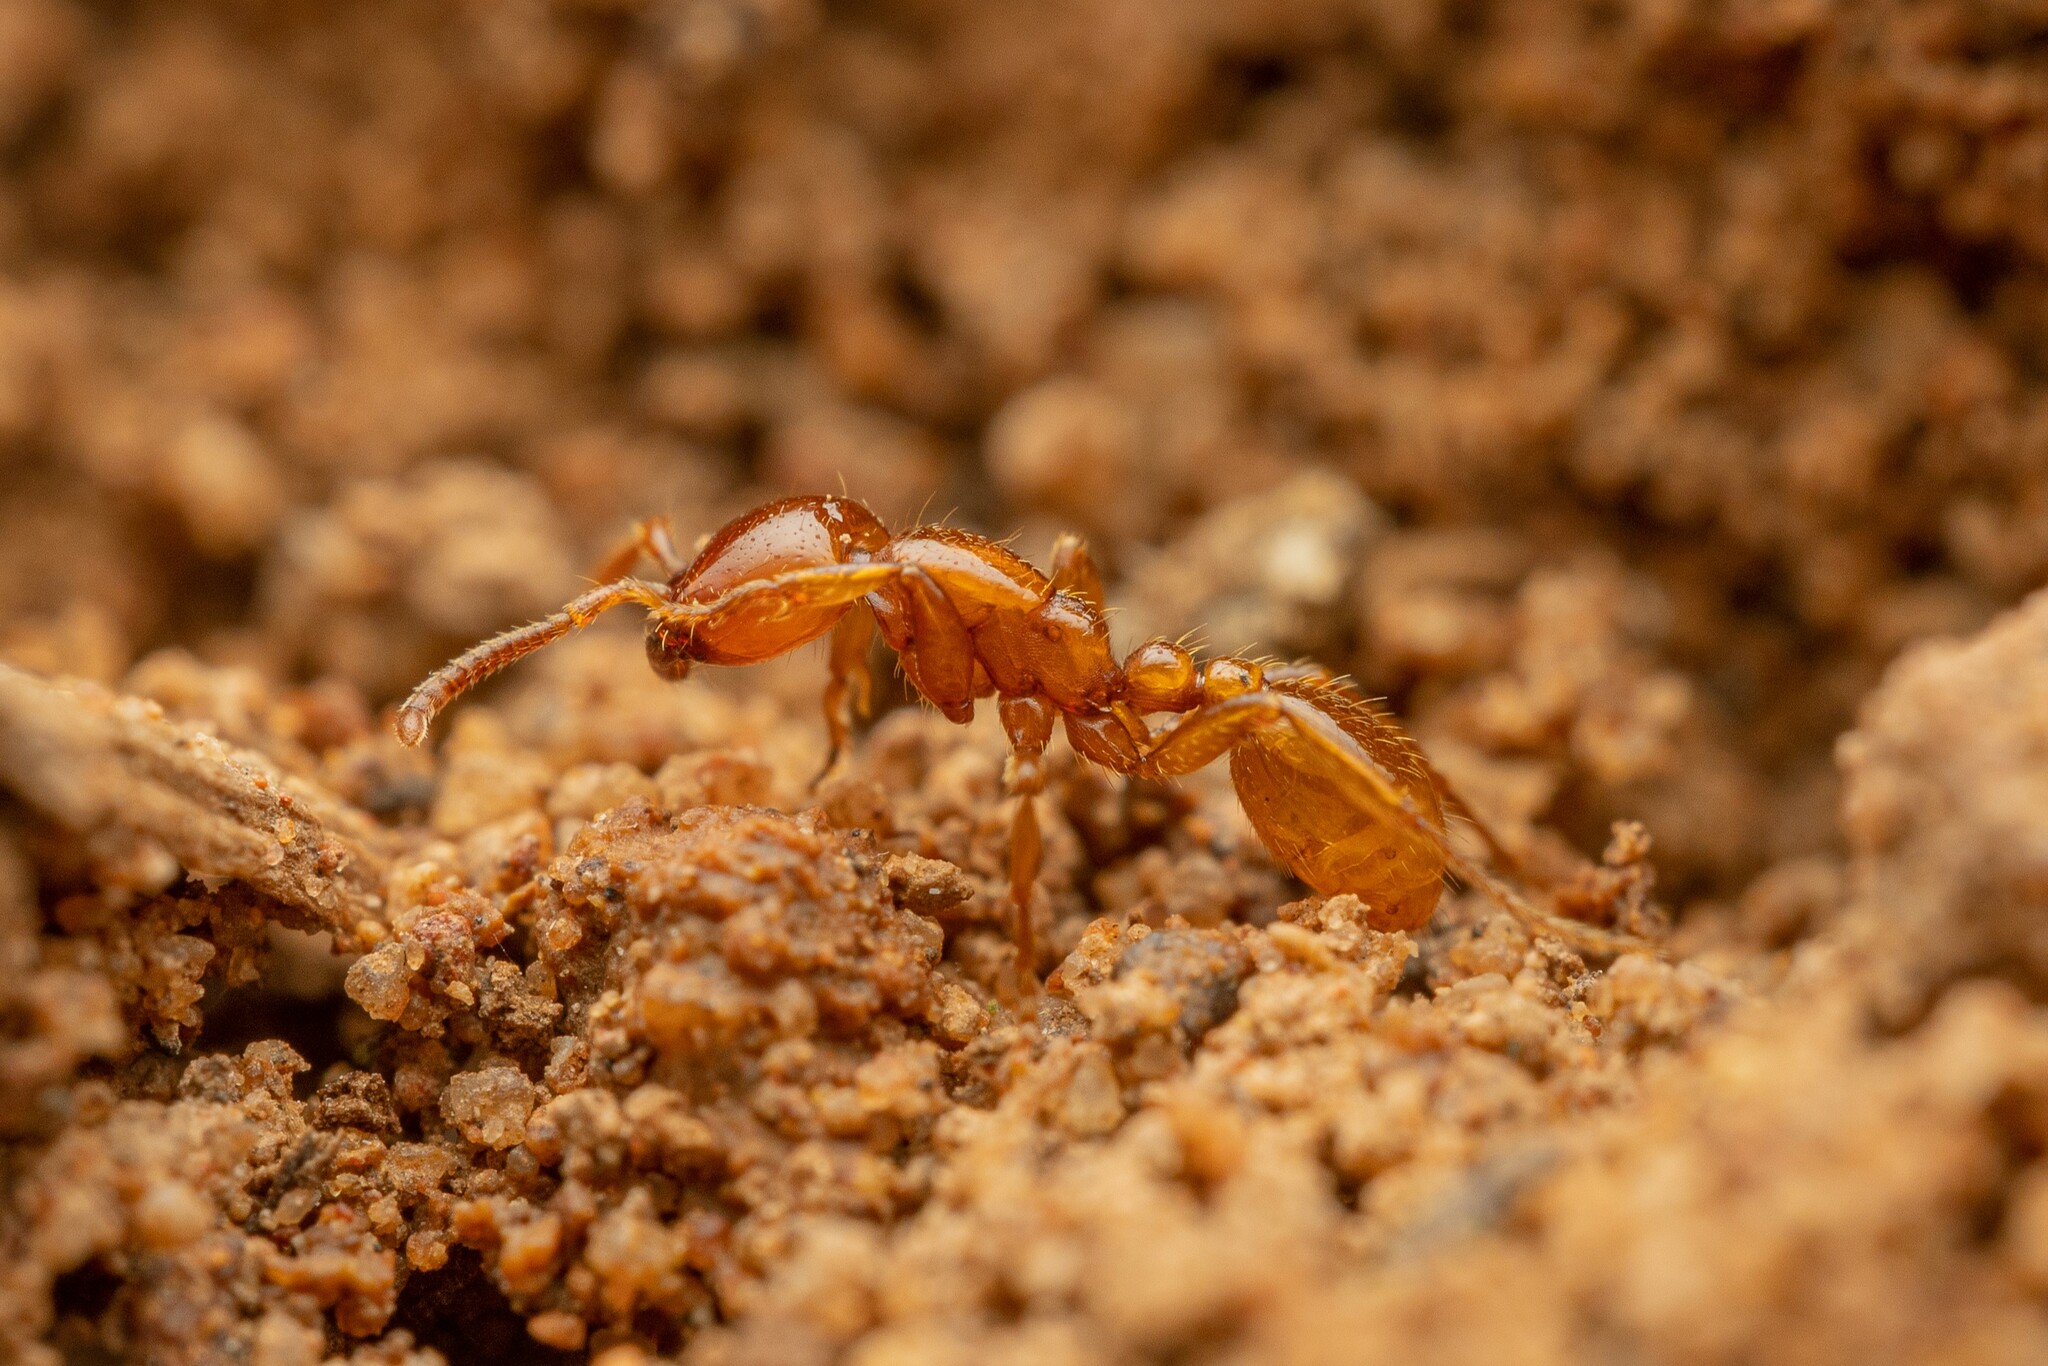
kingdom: Animalia
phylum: Arthropoda
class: Insecta
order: Hymenoptera
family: Formicidae
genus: Neivamyrmex
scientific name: Neivamyrmex swainsonii
